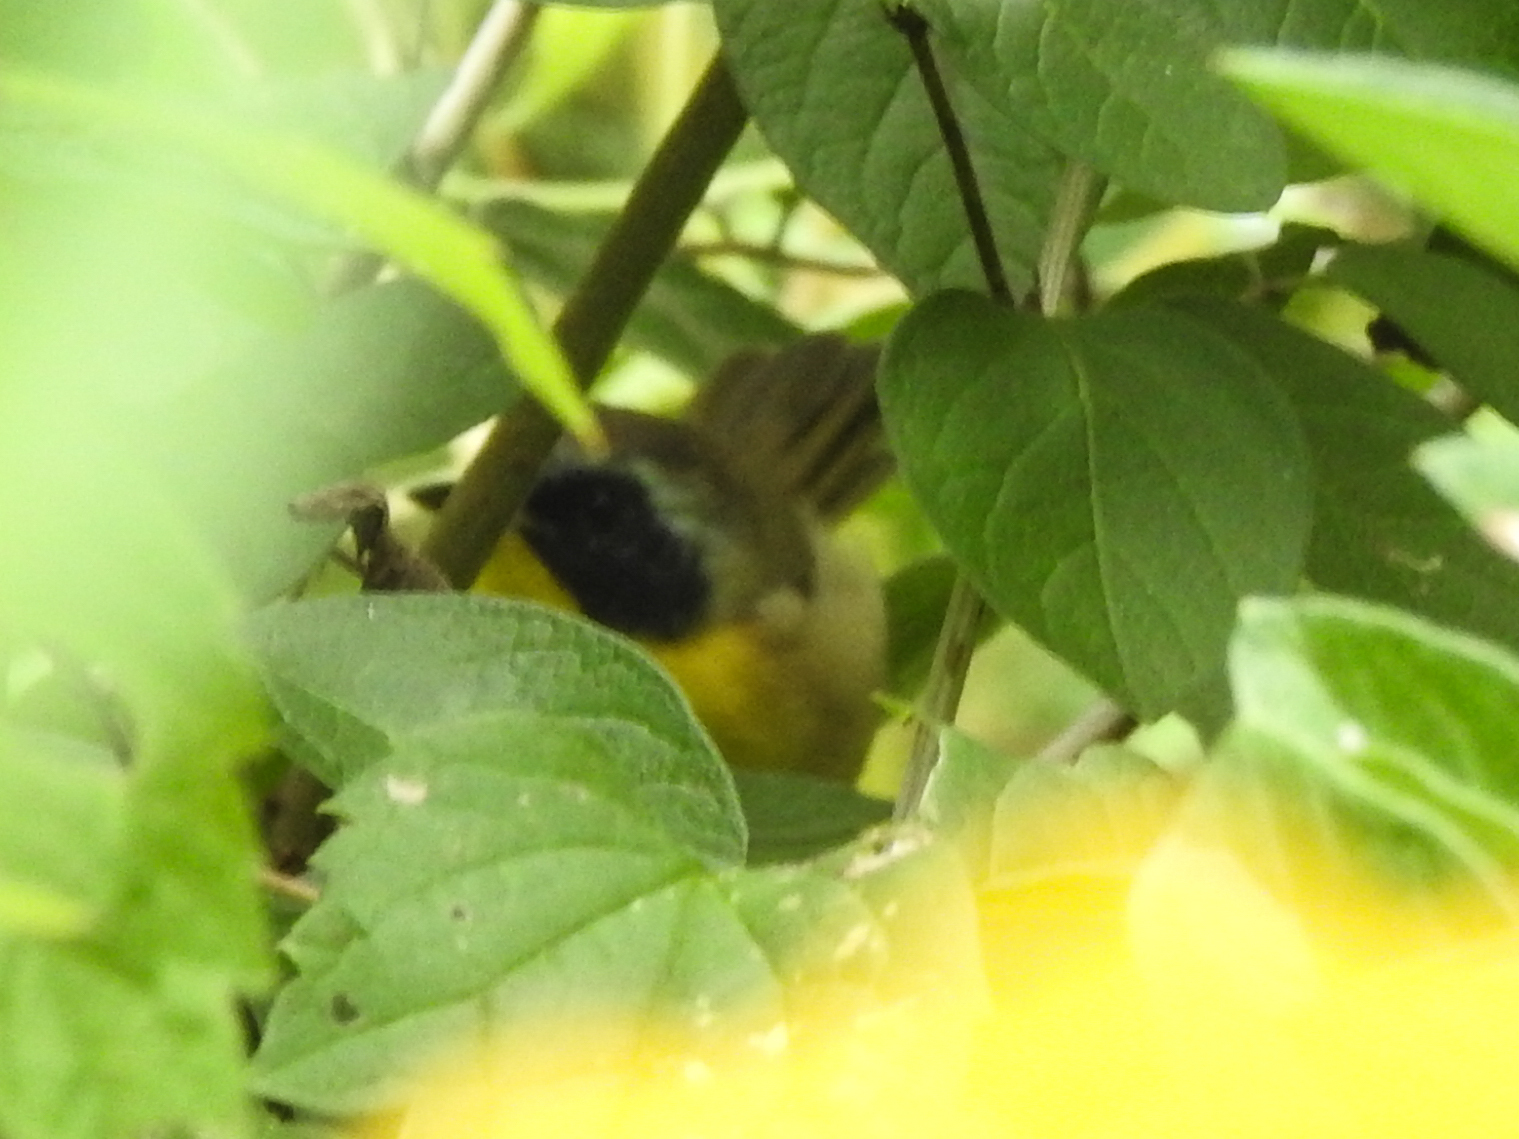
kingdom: Animalia
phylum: Chordata
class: Aves
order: Passeriformes
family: Parulidae
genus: Geothlypis
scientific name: Geothlypis trichas
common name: Common yellowthroat
